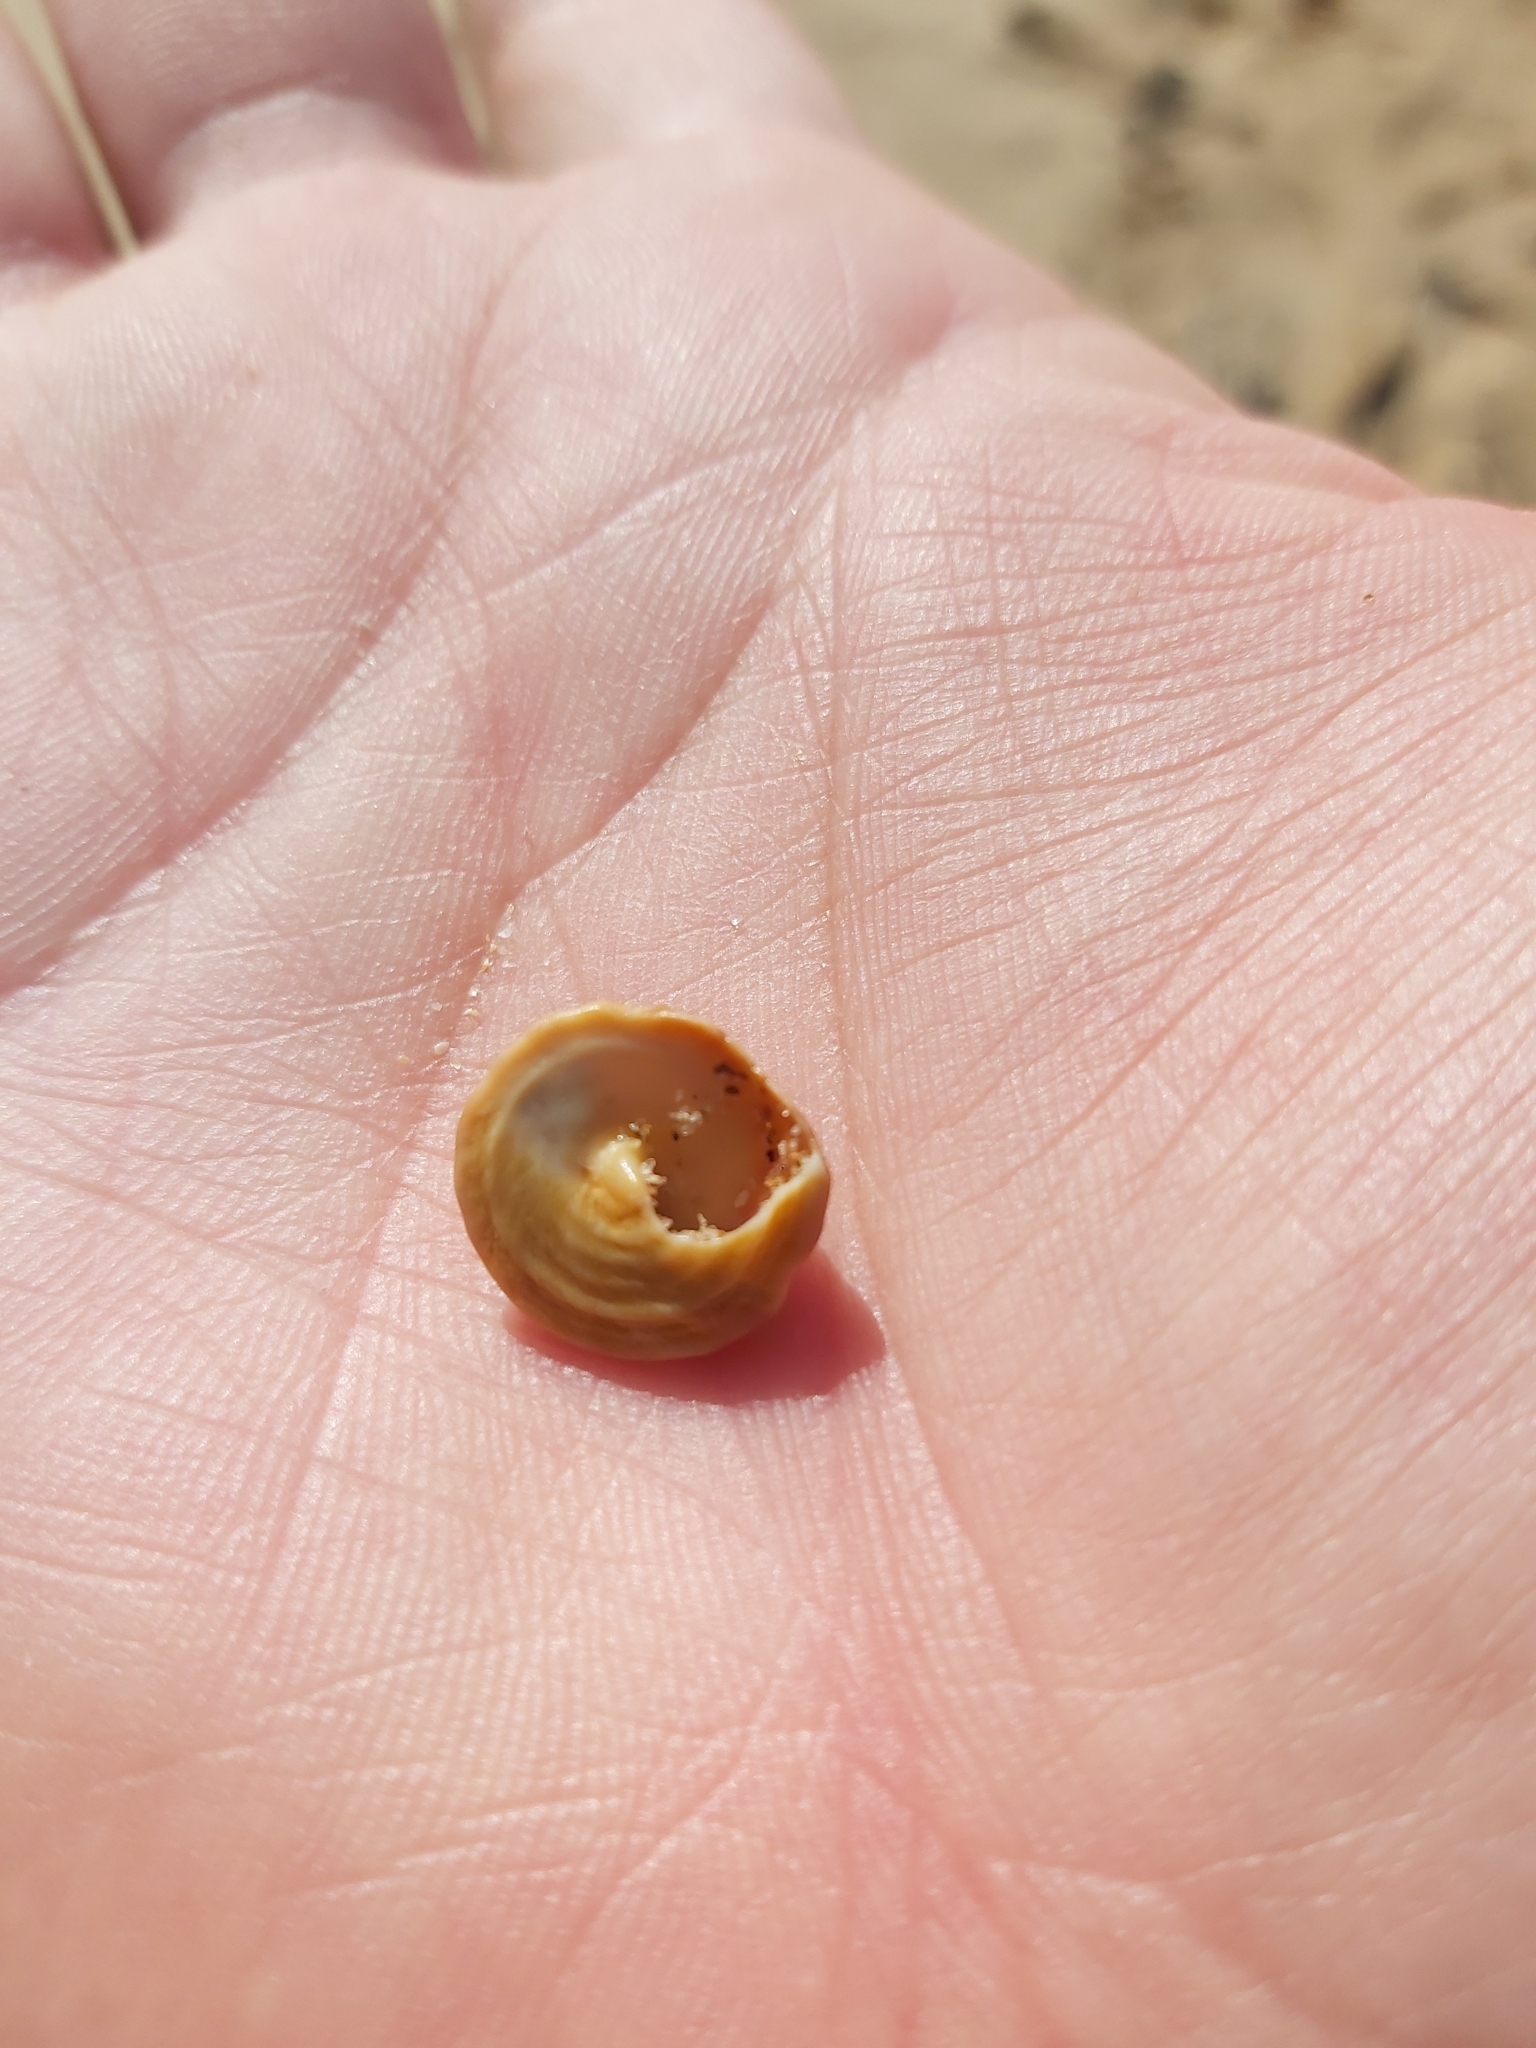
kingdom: Animalia
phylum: Mollusca
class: Gastropoda
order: Littorinimorpha
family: Littorinidae
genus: Bembicium
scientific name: Bembicium nanum
